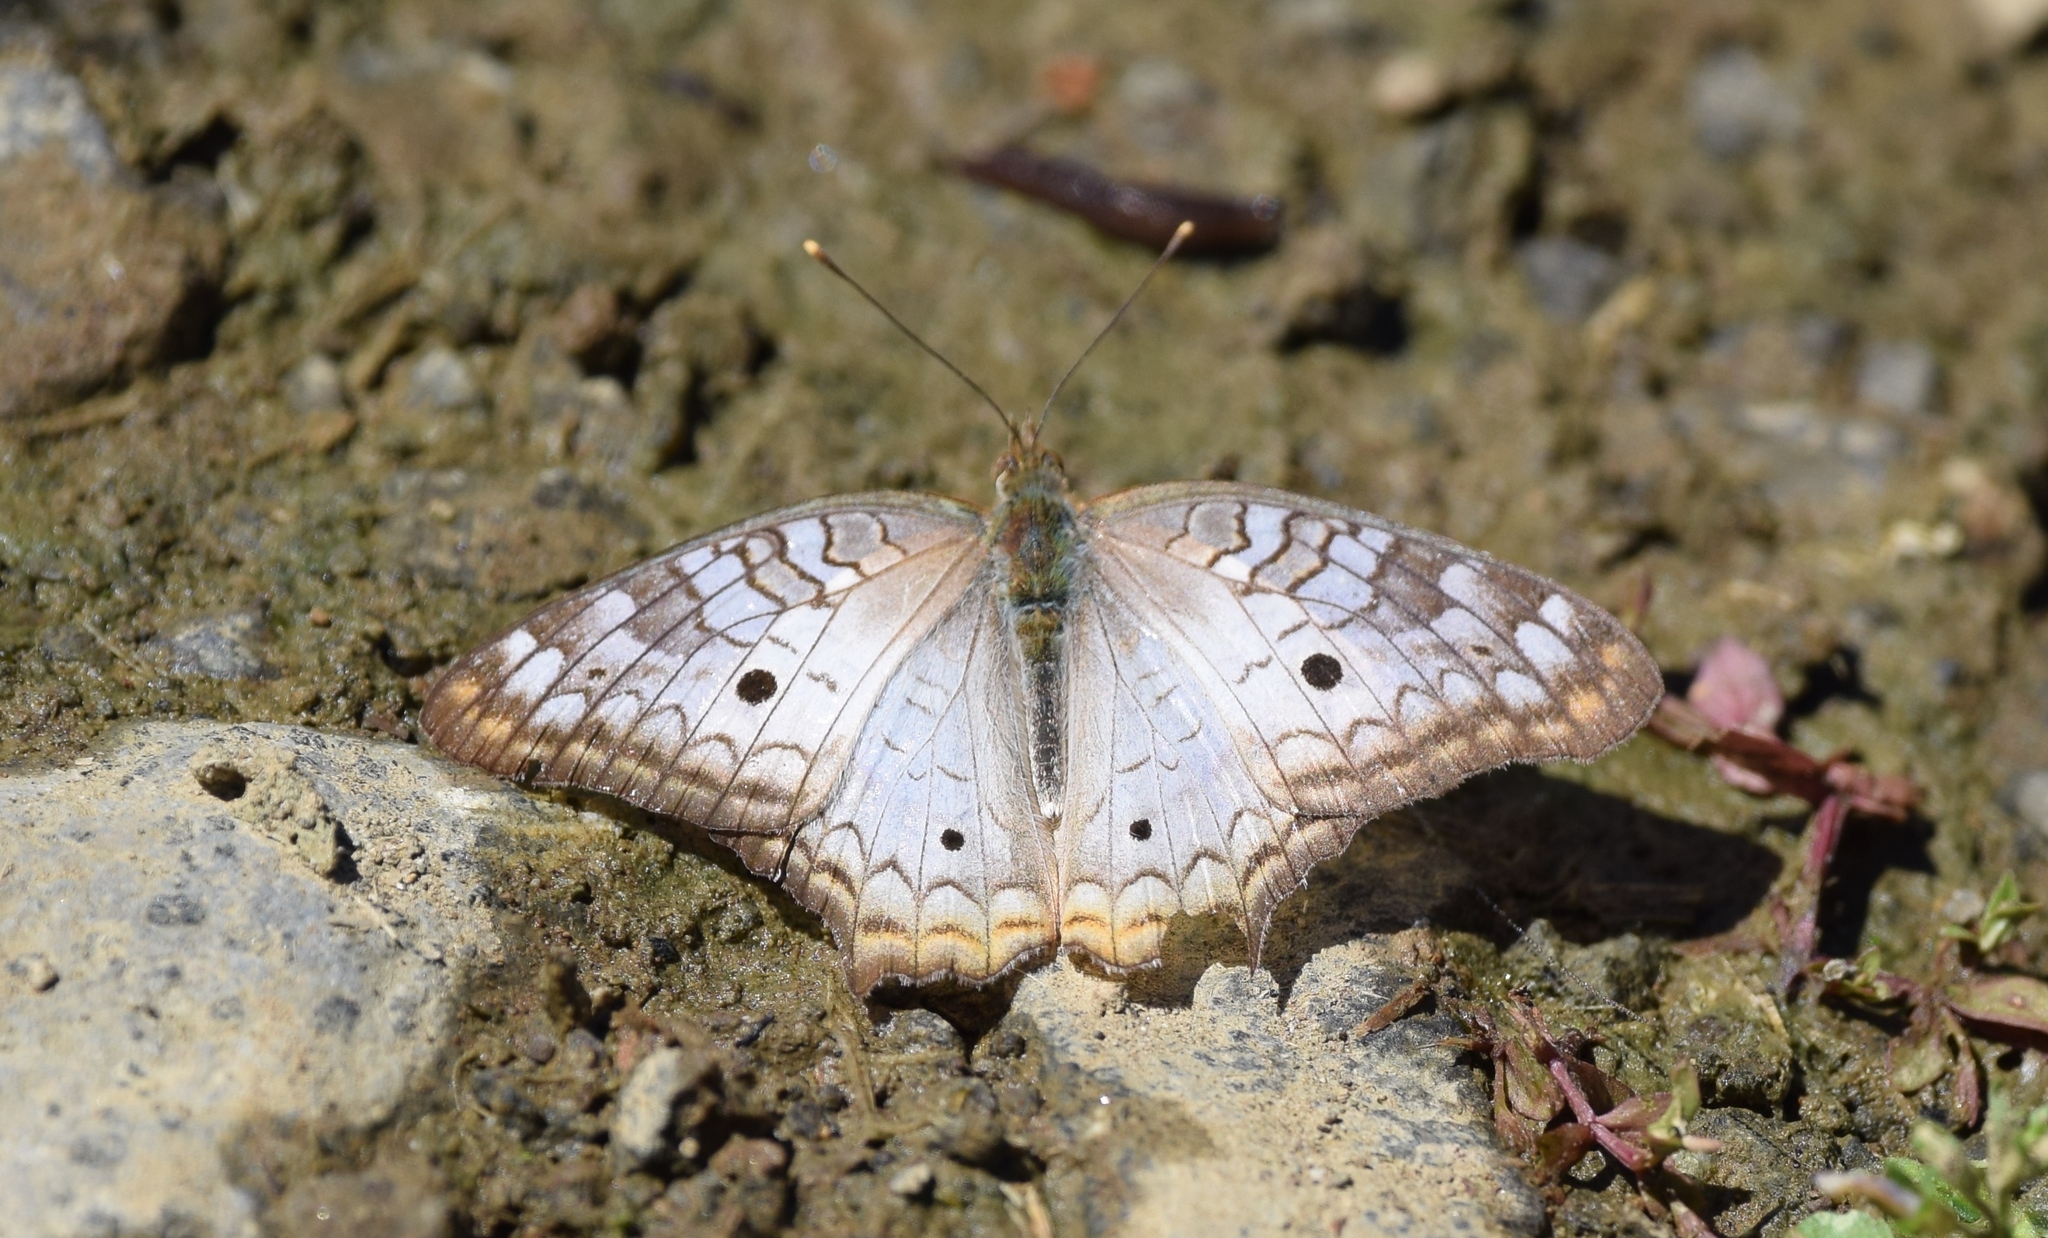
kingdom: Animalia
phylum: Arthropoda
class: Insecta
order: Lepidoptera
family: Nymphalidae
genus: Anartia
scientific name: Anartia jatrophae
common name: White peacock
